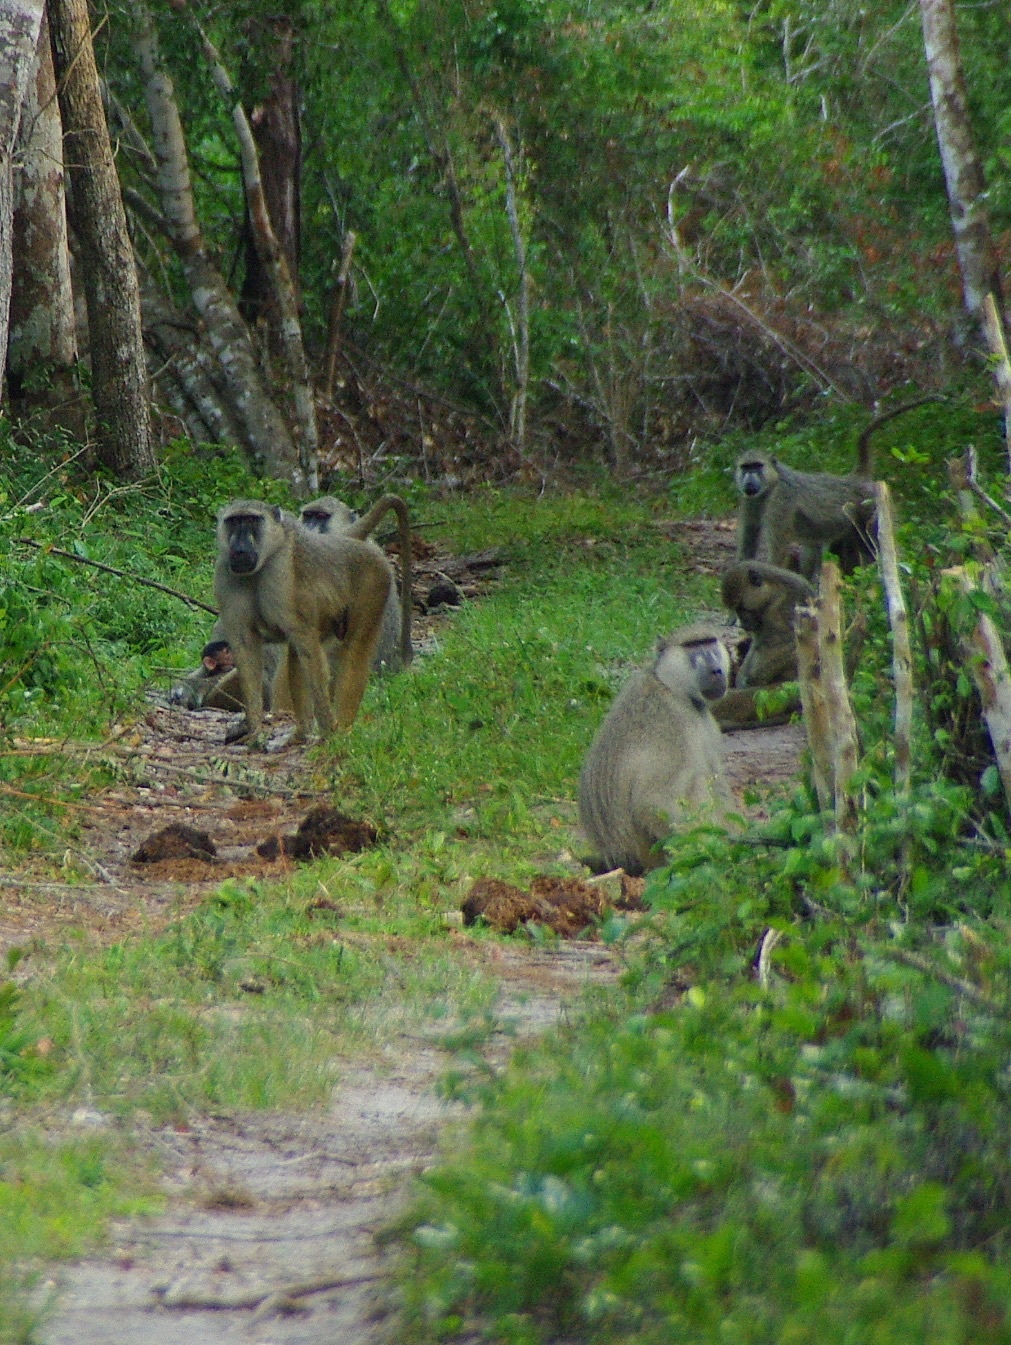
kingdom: Animalia
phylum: Chordata
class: Mammalia
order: Primates
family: Cercopithecidae
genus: Papio
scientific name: Papio cynocephalus
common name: Yellow baboon
